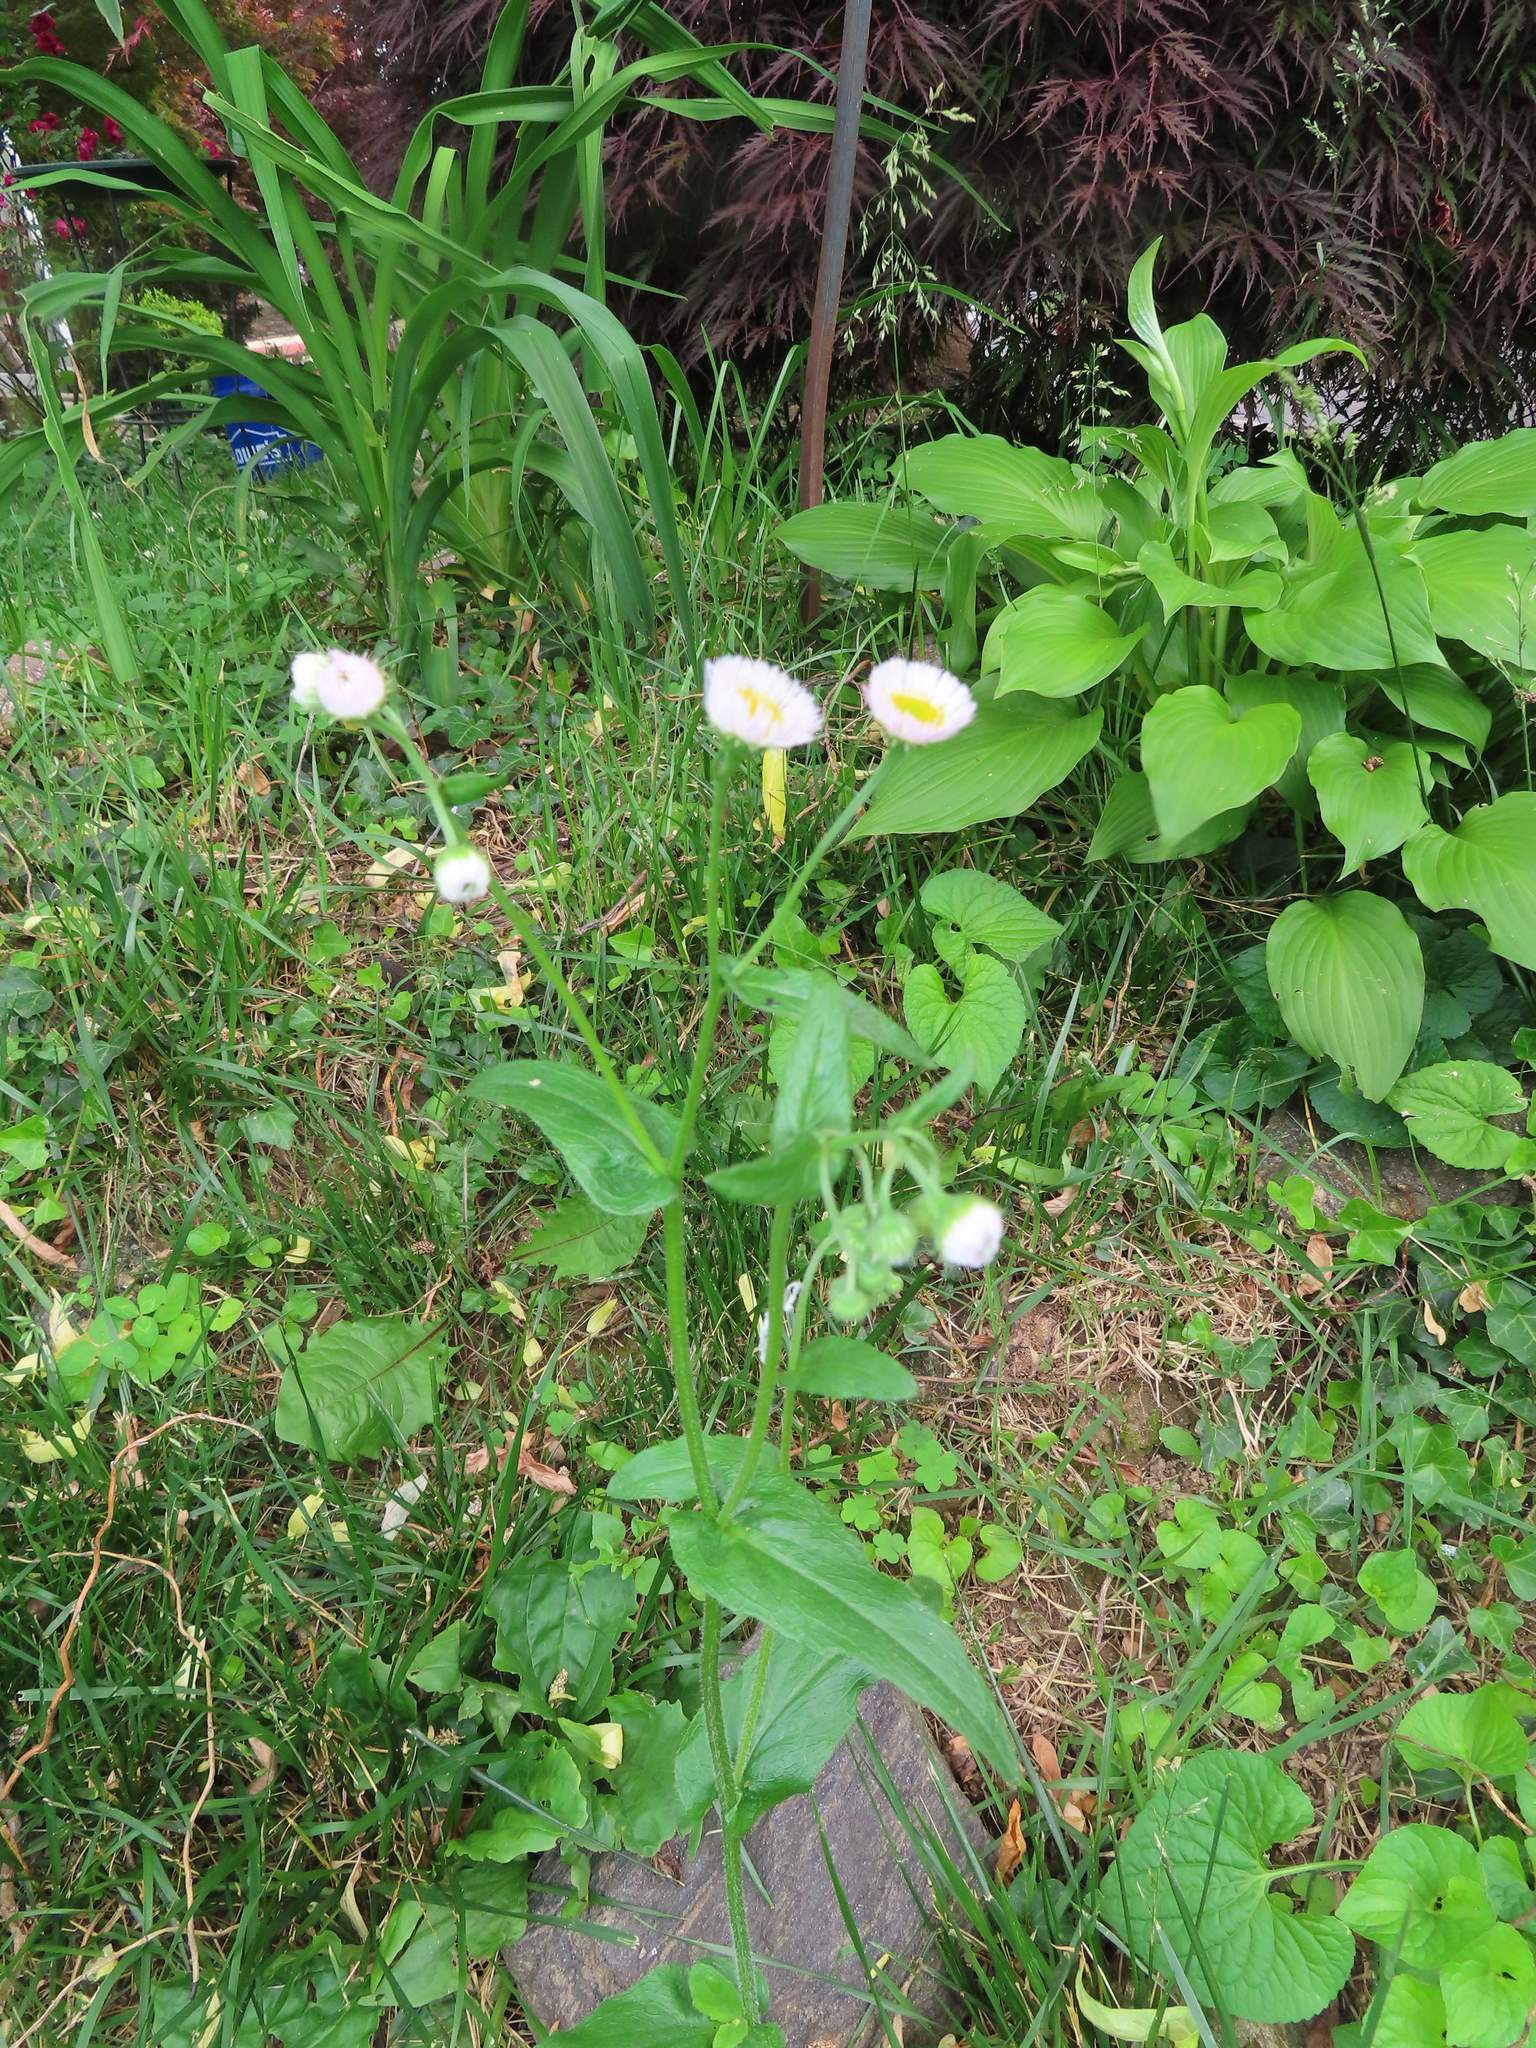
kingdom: Plantae
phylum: Tracheophyta
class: Magnoliopsida
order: Asterales
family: Asteraceae
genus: Erigeron
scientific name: Erigeron philadelphicus
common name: Robin's-plantain
